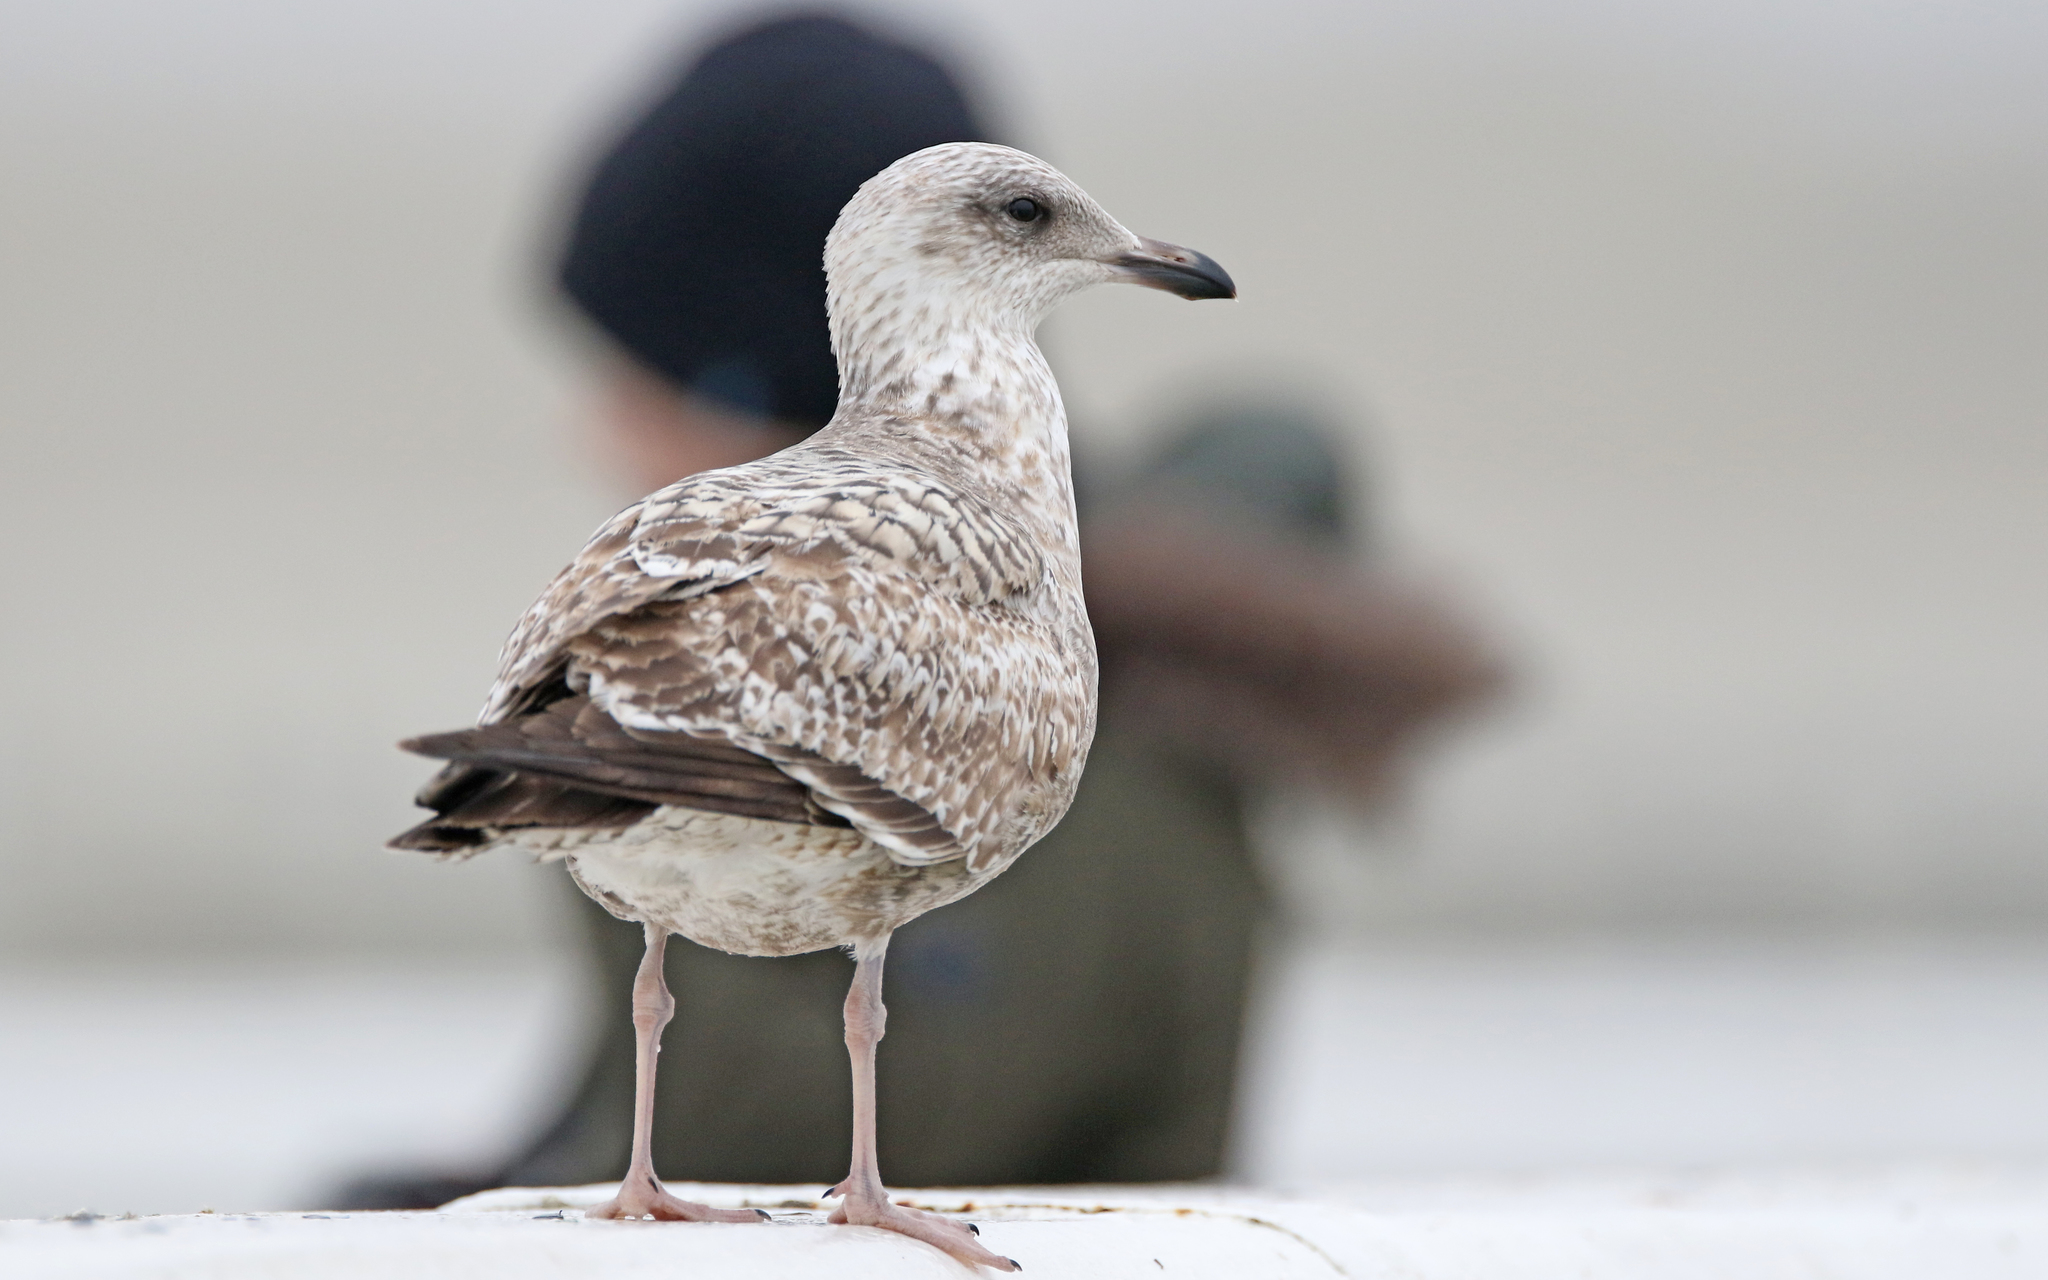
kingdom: Animalia
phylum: Chordata
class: Aves
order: Charadriiformes
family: Laridae
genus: Larus
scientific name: Larus argentatus
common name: Herring gull
